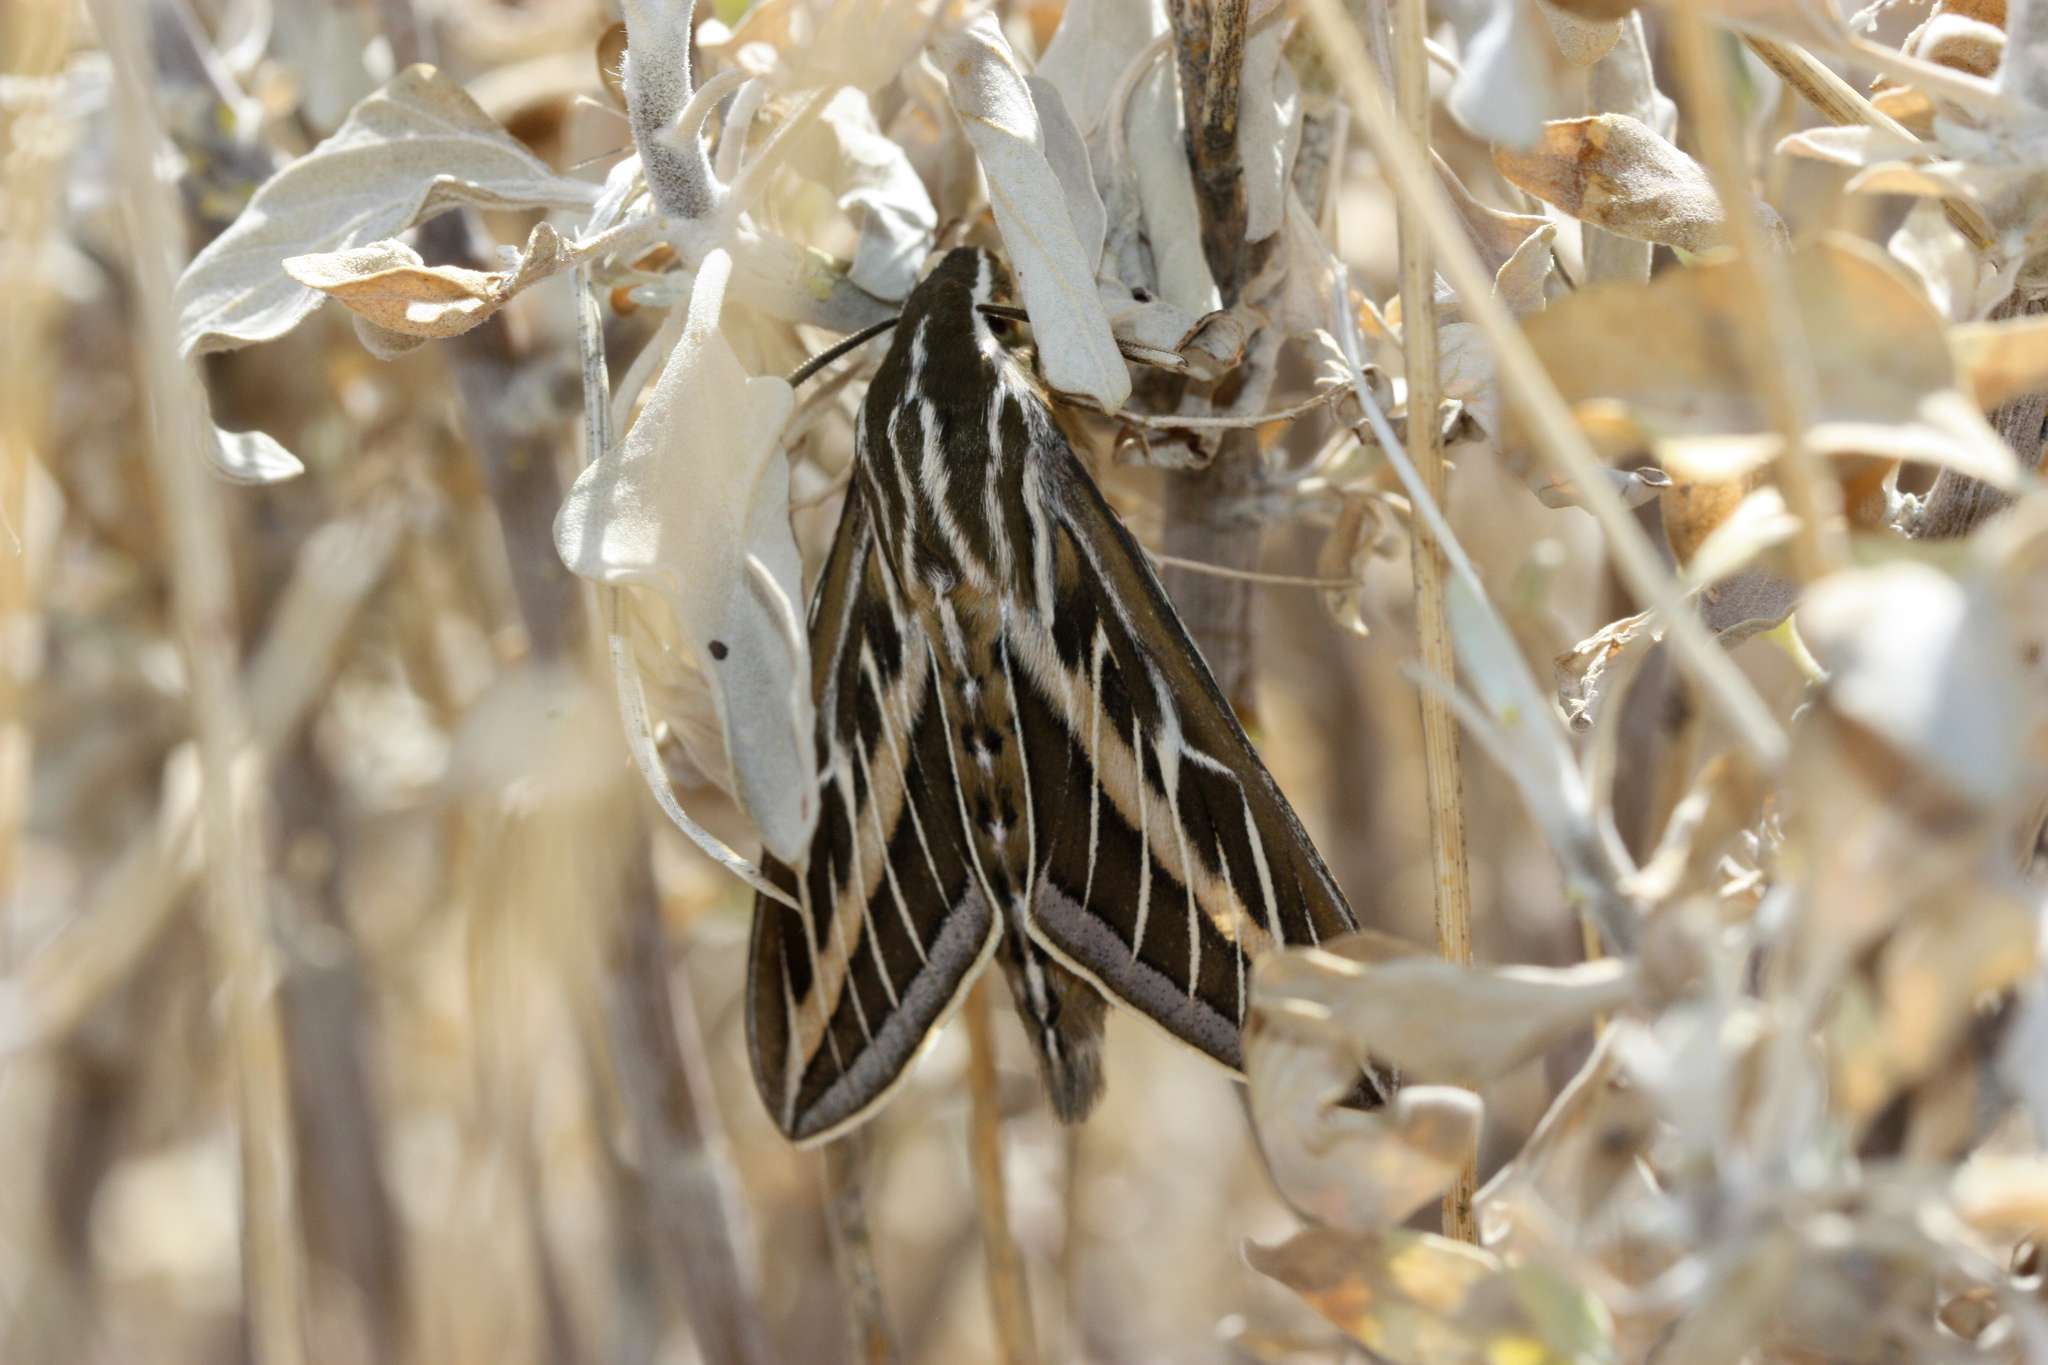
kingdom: Animalia
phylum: Arthropoda
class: Insecta
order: Lepidoptera
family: Sphingidae
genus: Hyles
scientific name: Hyles lineata
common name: White-lined sphinx
